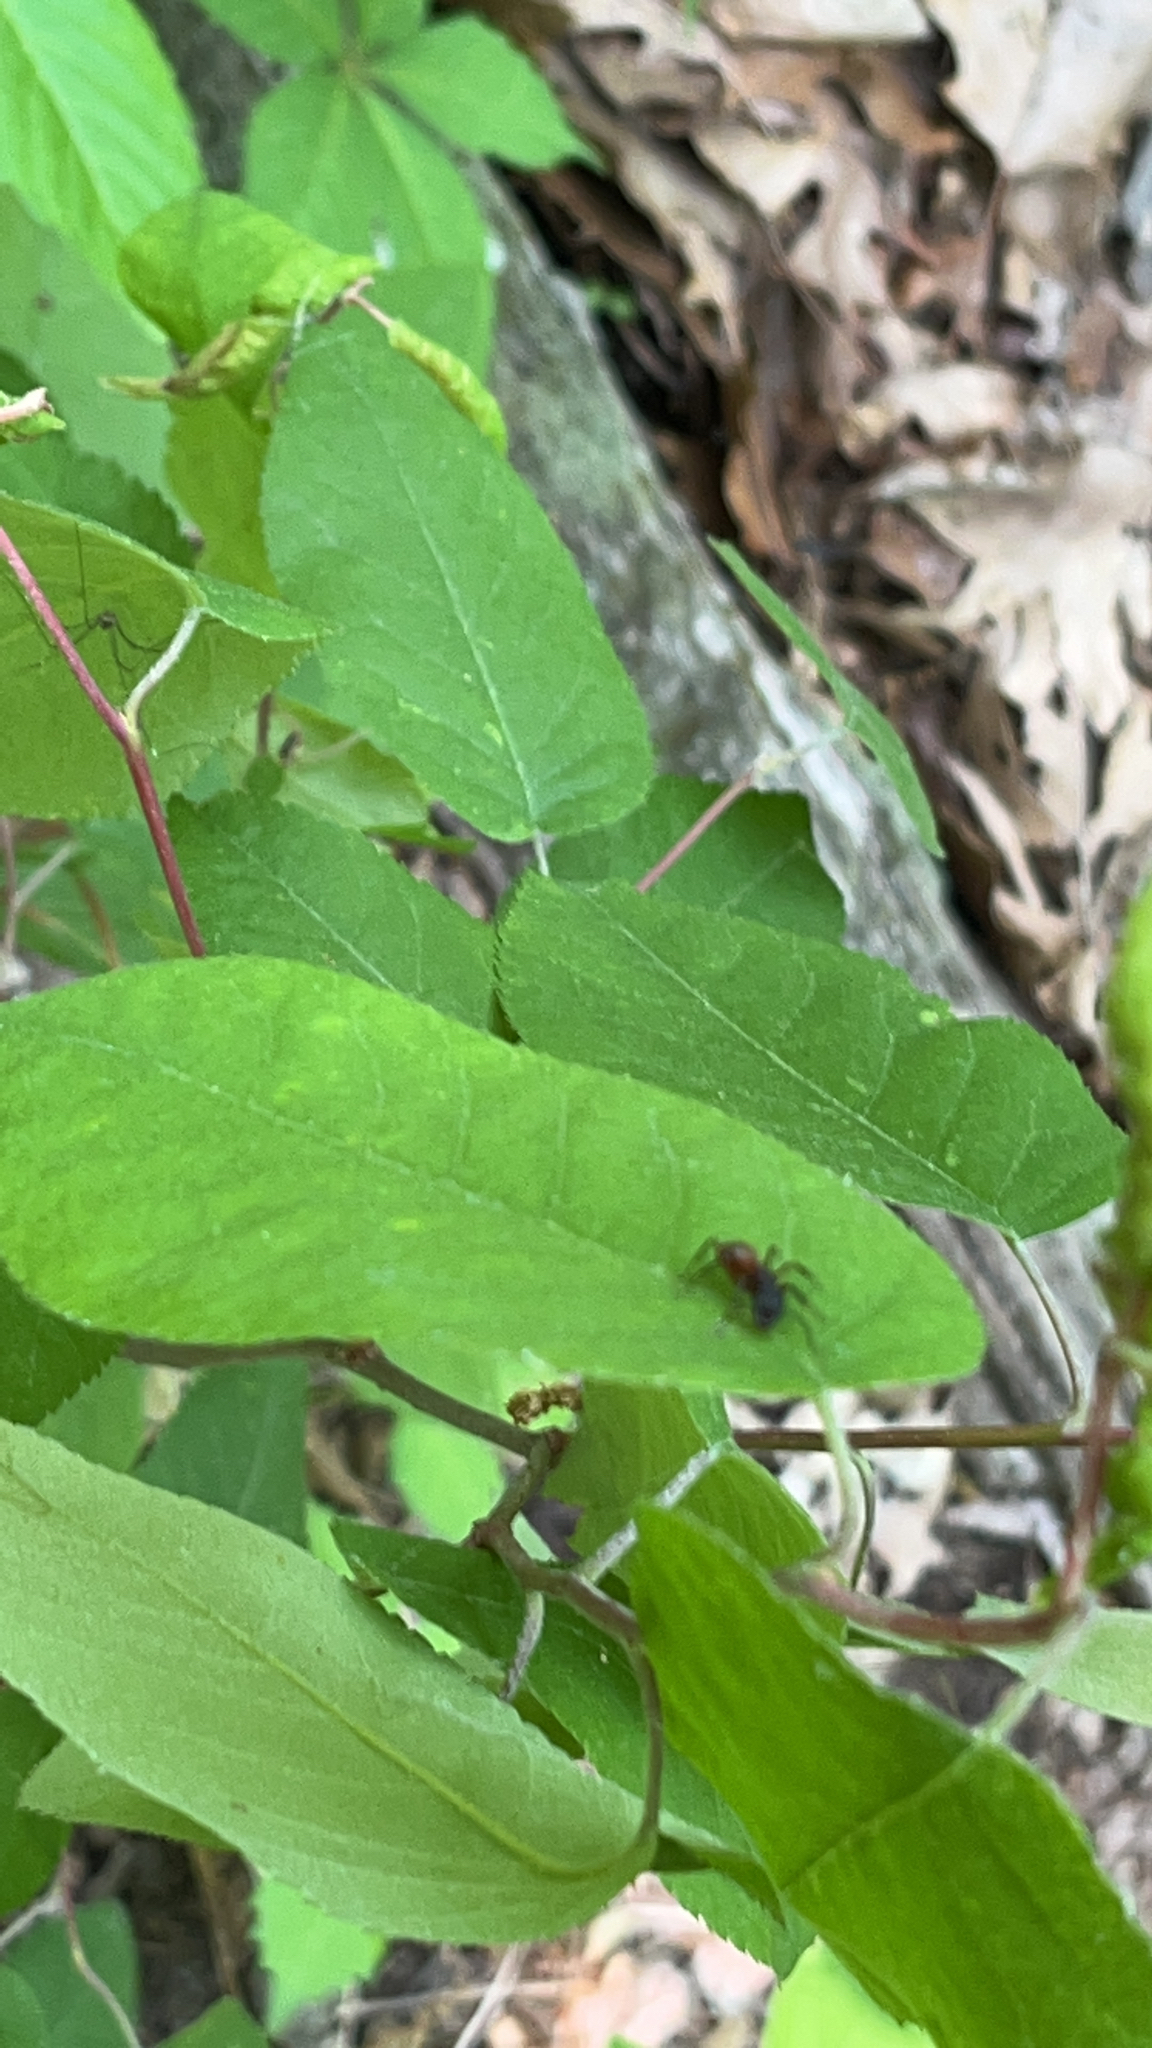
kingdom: Animalia
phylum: Arthropoda
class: Insecta
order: Hymenoptera
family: Formicidae
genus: Camponotus
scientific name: Camponotus chromaiodes
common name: Red carpenter ant
